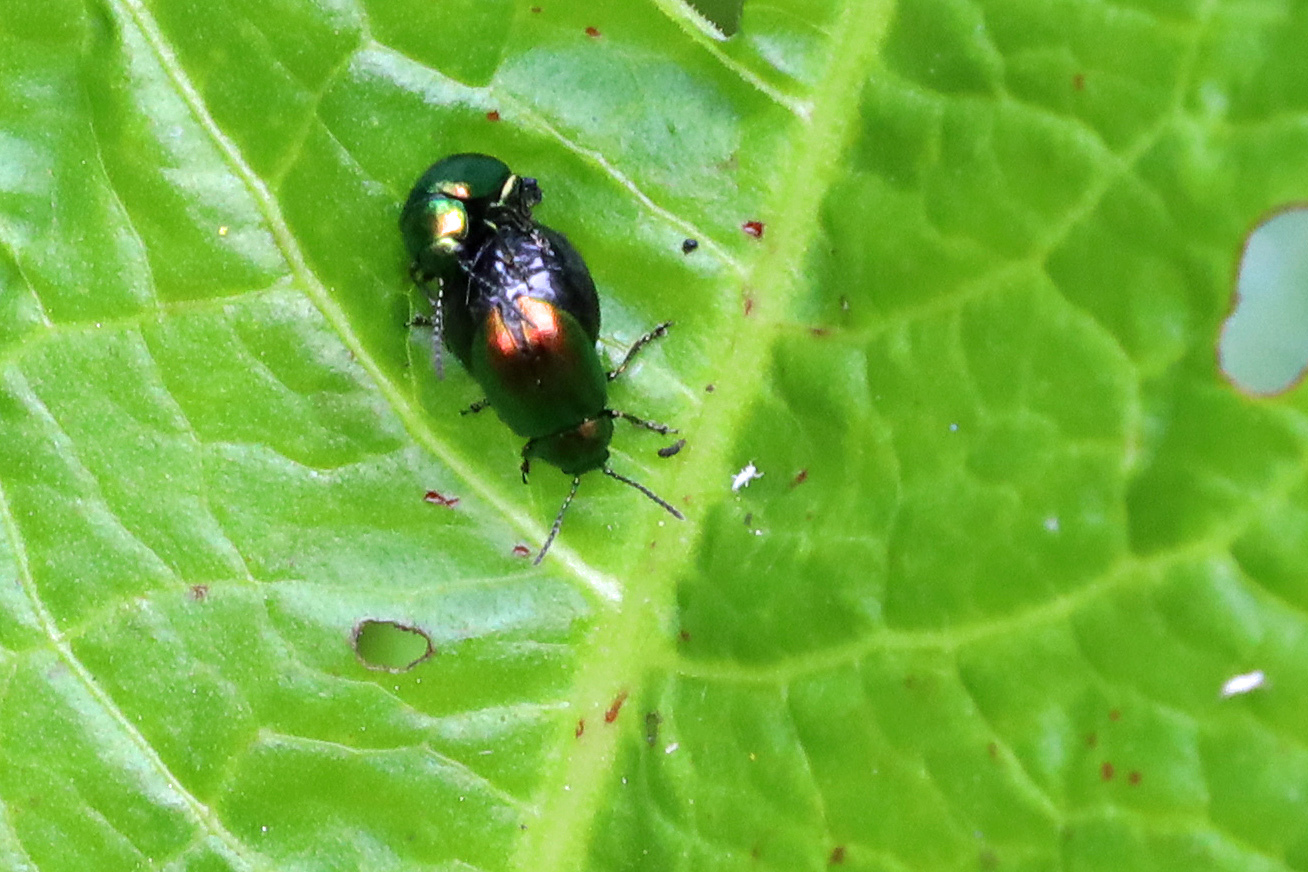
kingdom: Animalia
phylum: Arthropoda
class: Insecta
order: Coleoptera
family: Chrysomelidae
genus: Gastrophysa
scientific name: Gastrophysa viridula
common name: Green dock beetle
